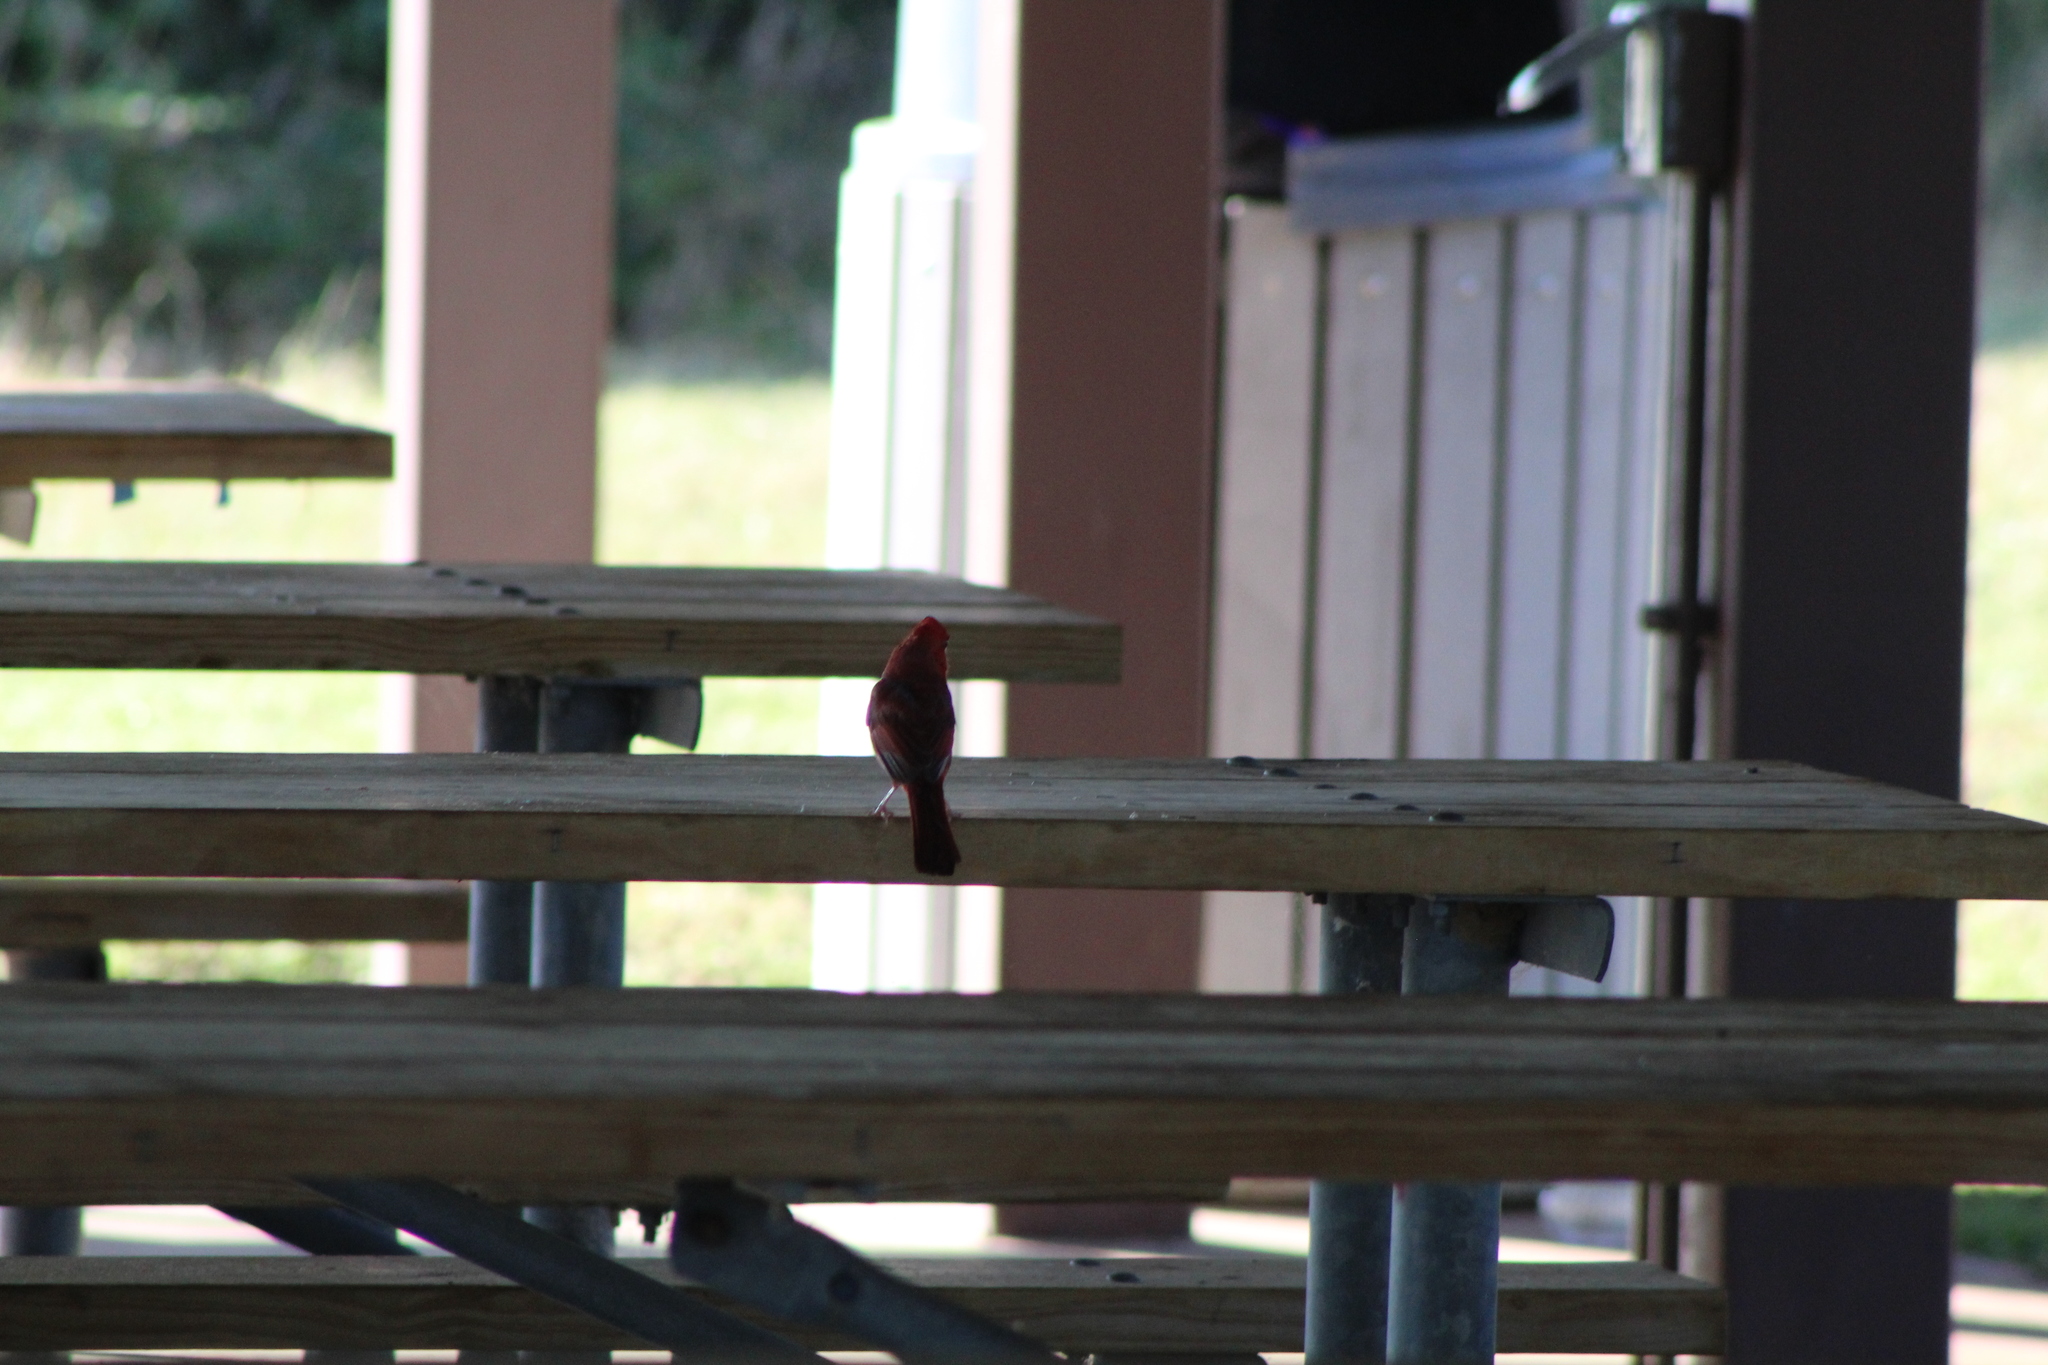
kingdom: Animalia
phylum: Chordata
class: Aves
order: Passeriformes
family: Cardinalidae
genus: Cardinalis
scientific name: Cardinalis cardinalis
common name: Northern cardinal
